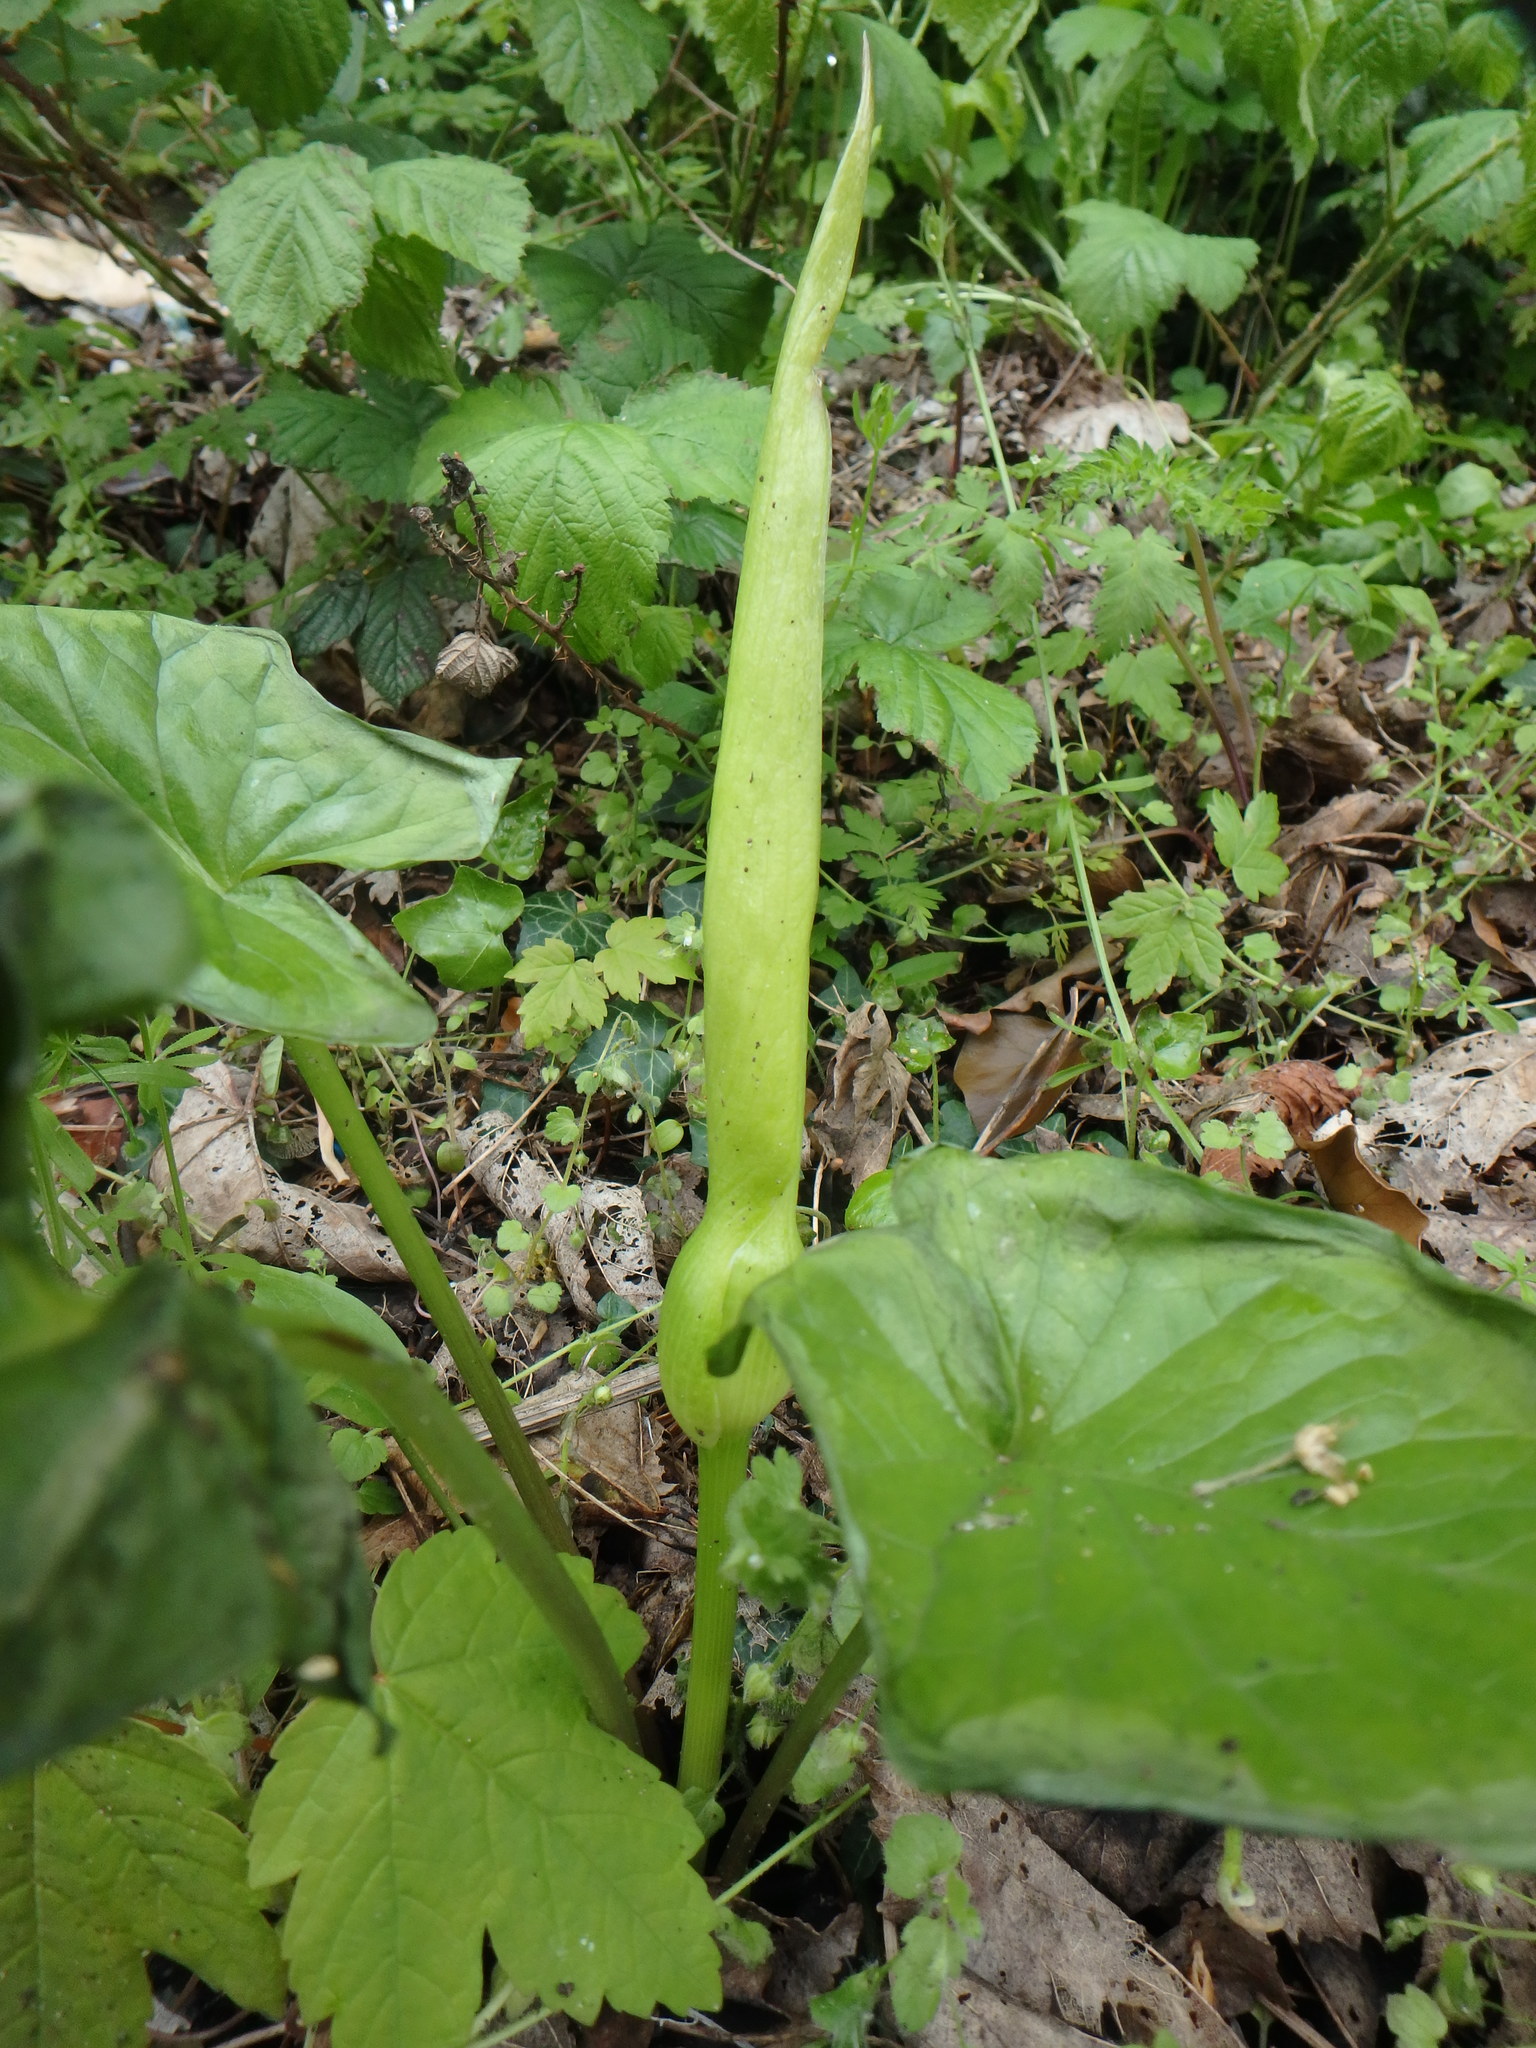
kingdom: Plantae
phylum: Tracheophyta
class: Liliopsida
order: Alismatales
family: Araceae
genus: Arum
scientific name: Arum maculatum
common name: Lords-and-ladies
